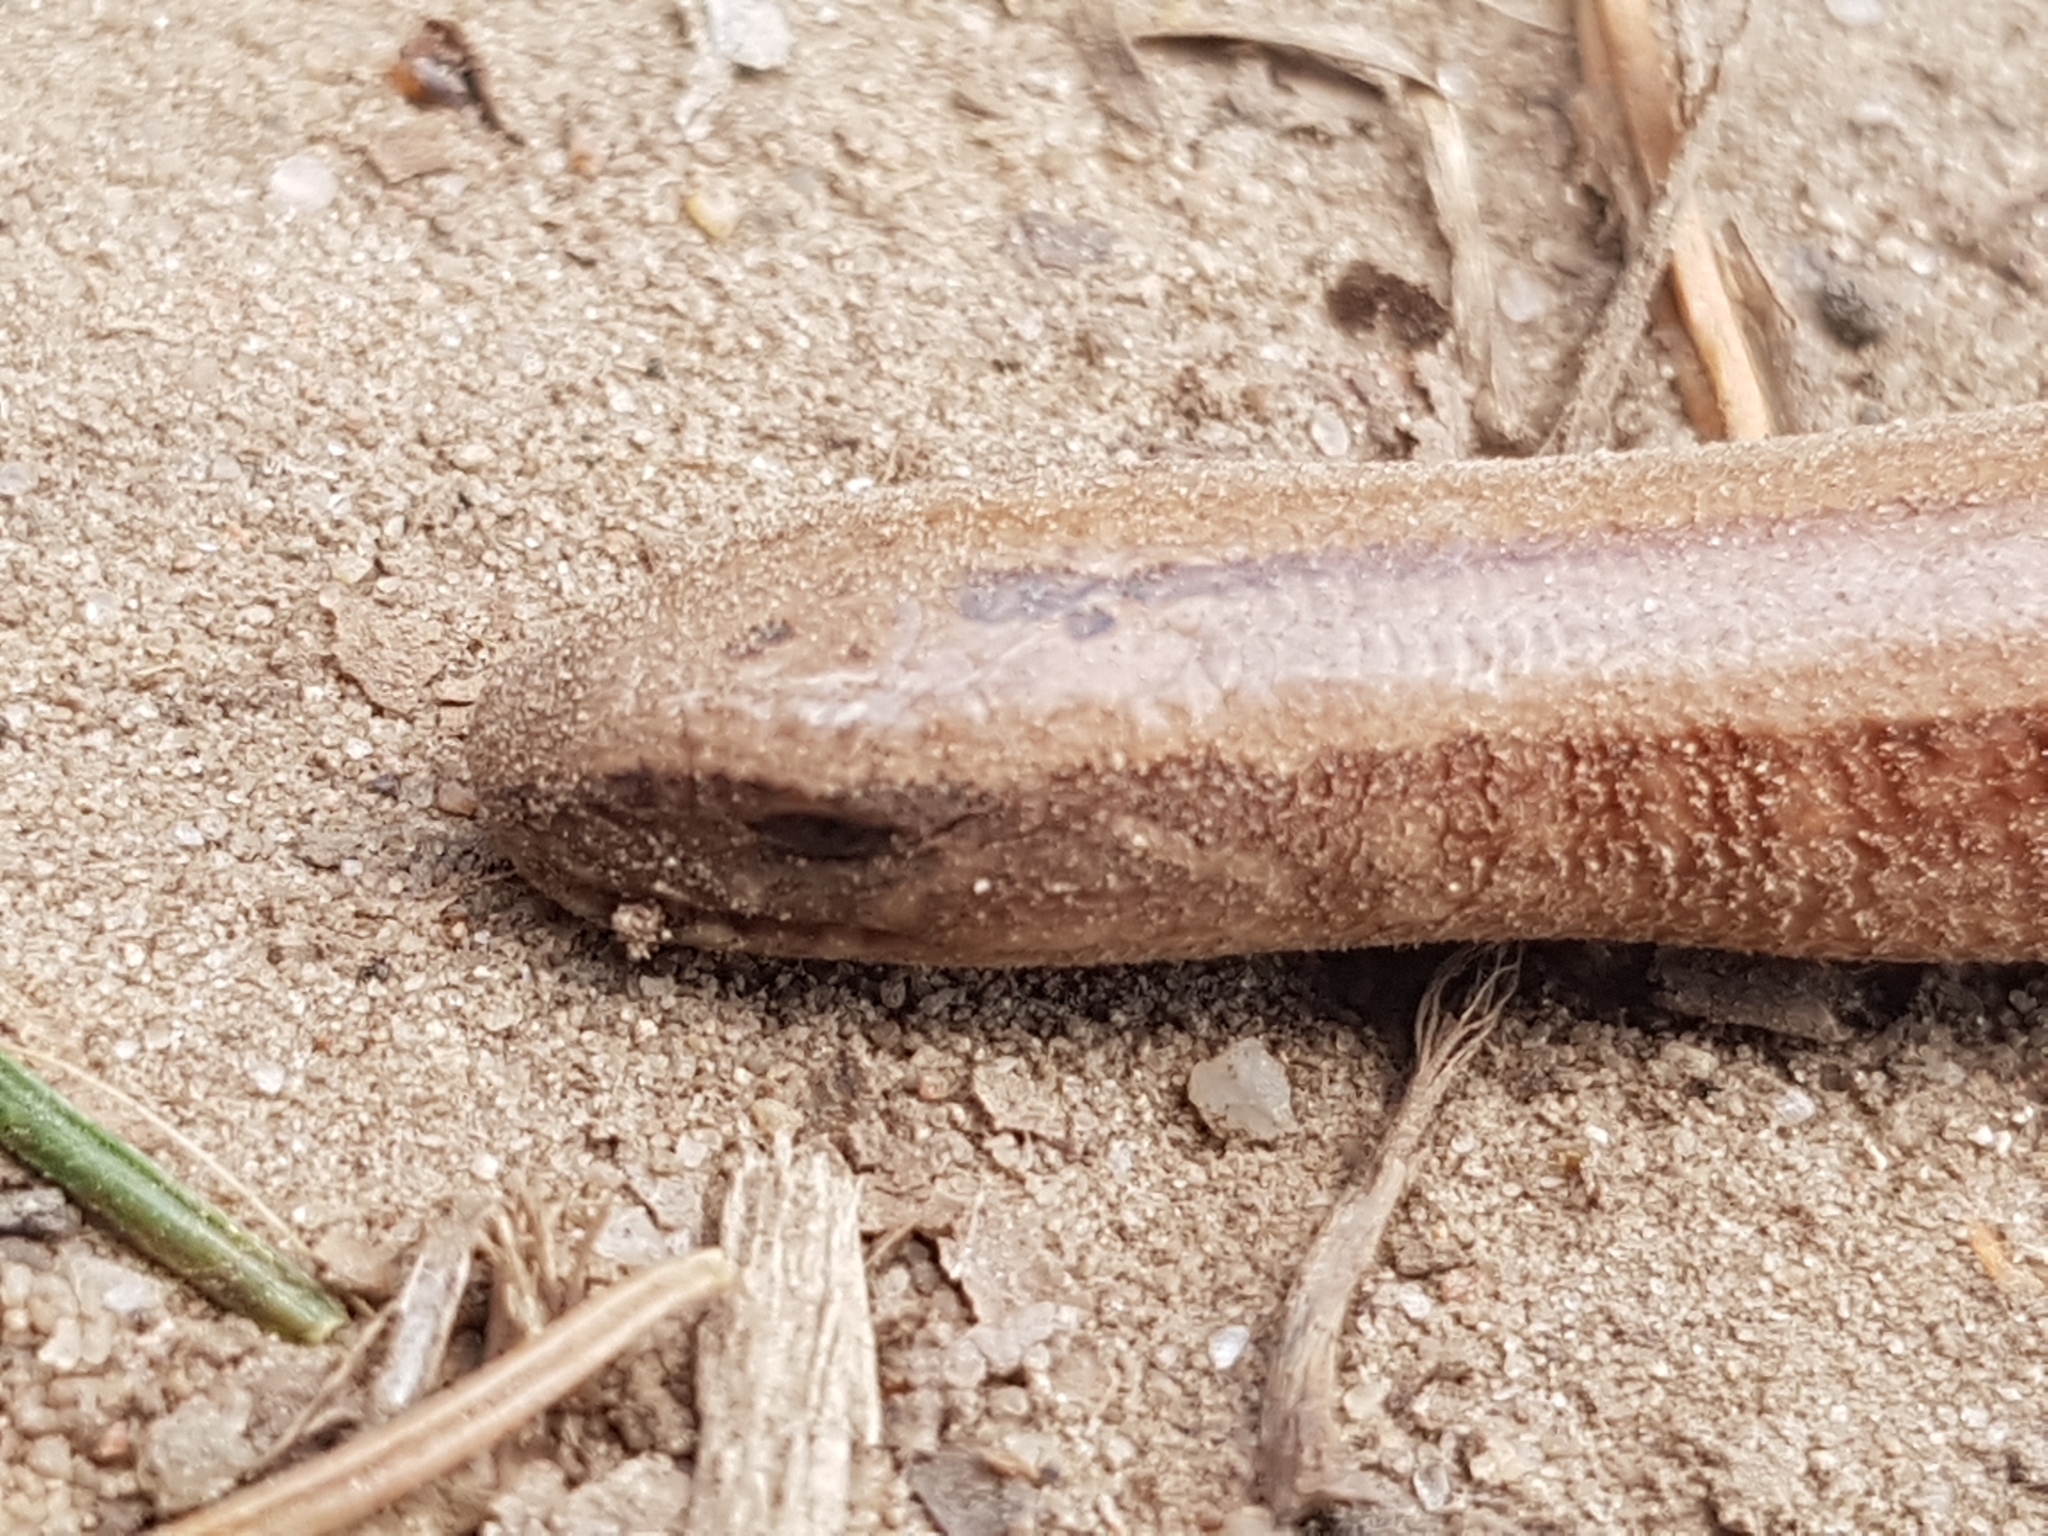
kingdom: Animalia
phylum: Chordata
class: Squamata
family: Anguidae
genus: Anguis
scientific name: Anguis fragilis
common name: Slow worm
